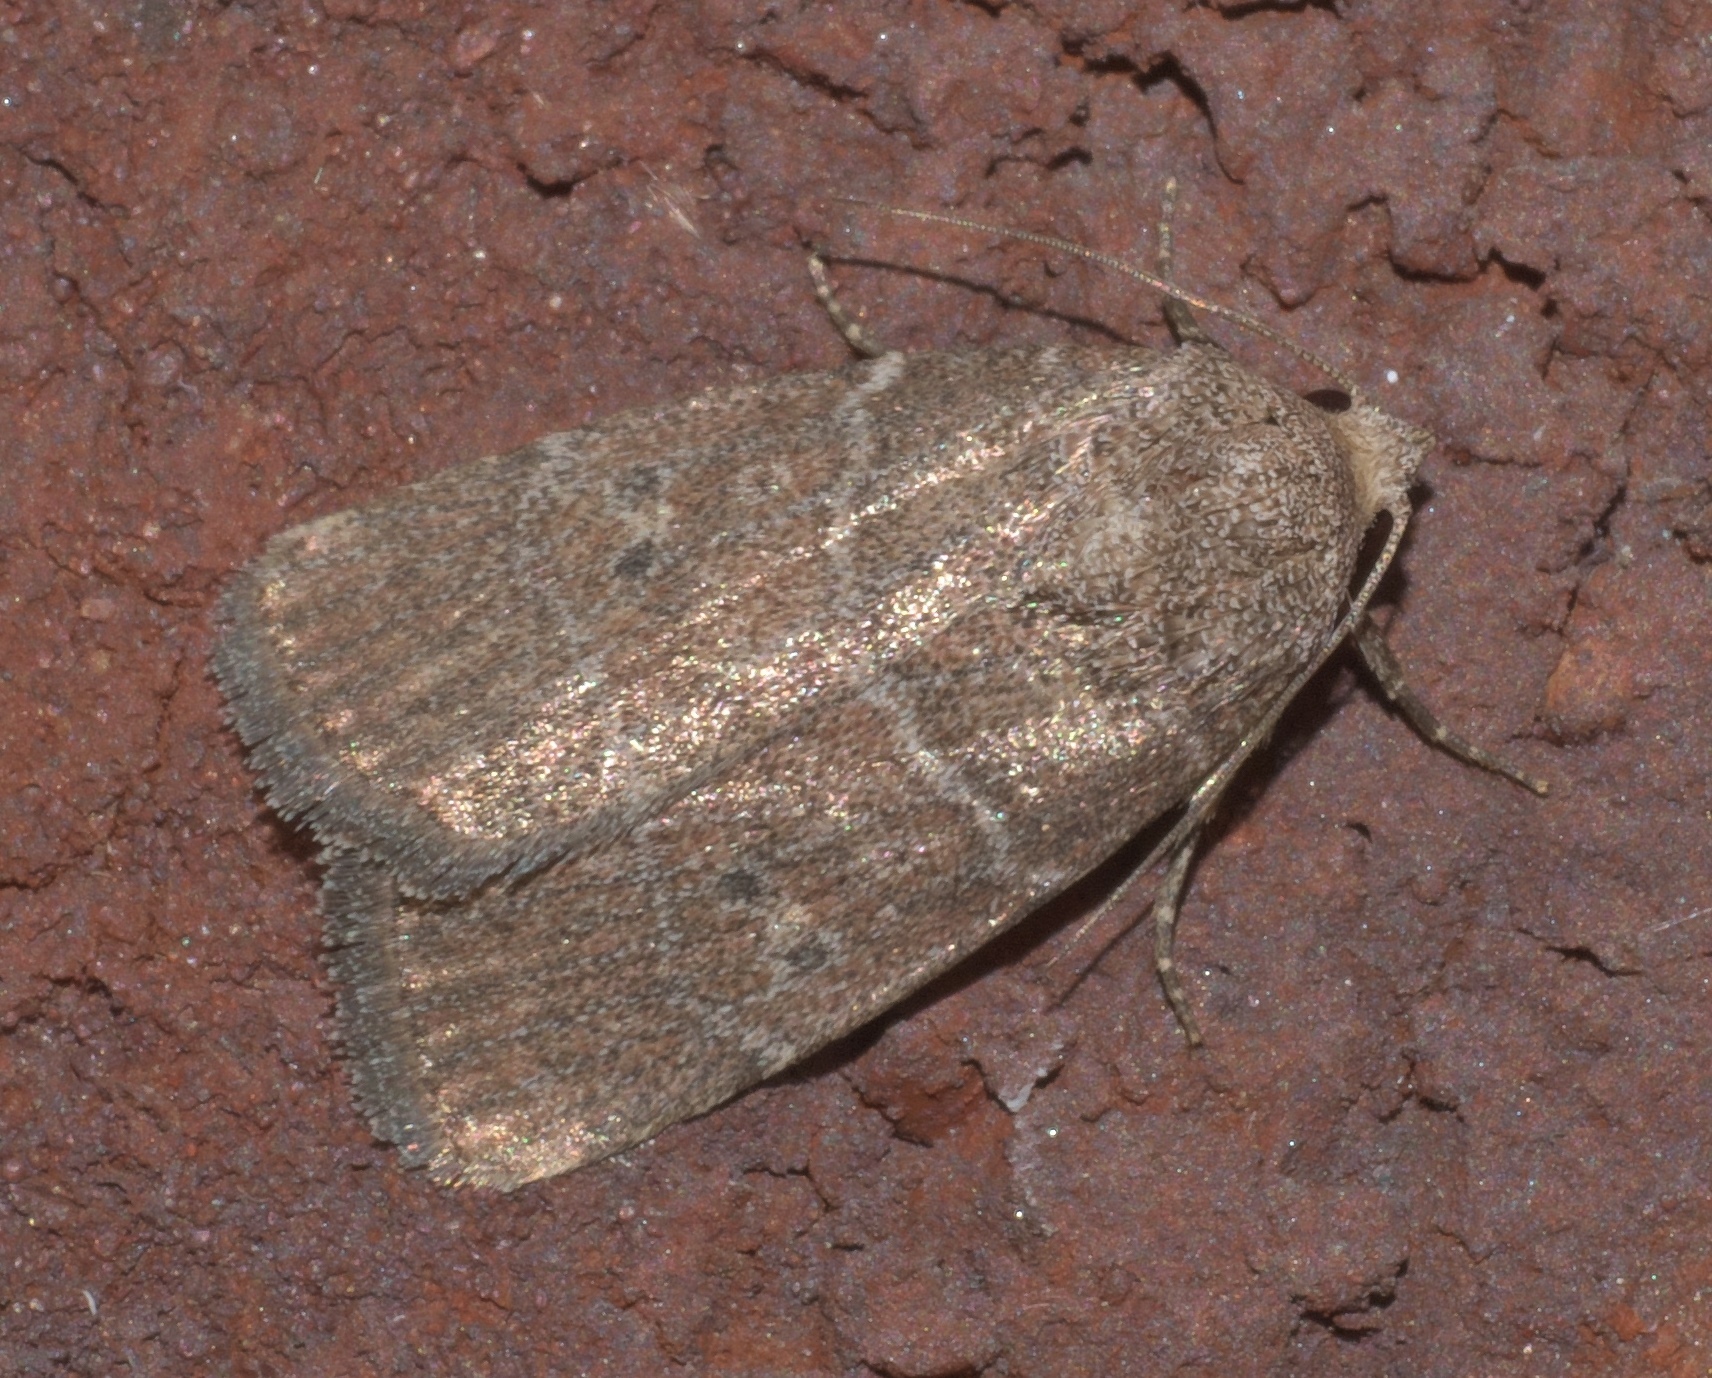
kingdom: Animalia
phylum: Arthropoda
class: Insecta
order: Lepidoptera
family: Noctuidae
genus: Elaphria
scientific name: Elaphria grata
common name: Grateful midget moth
